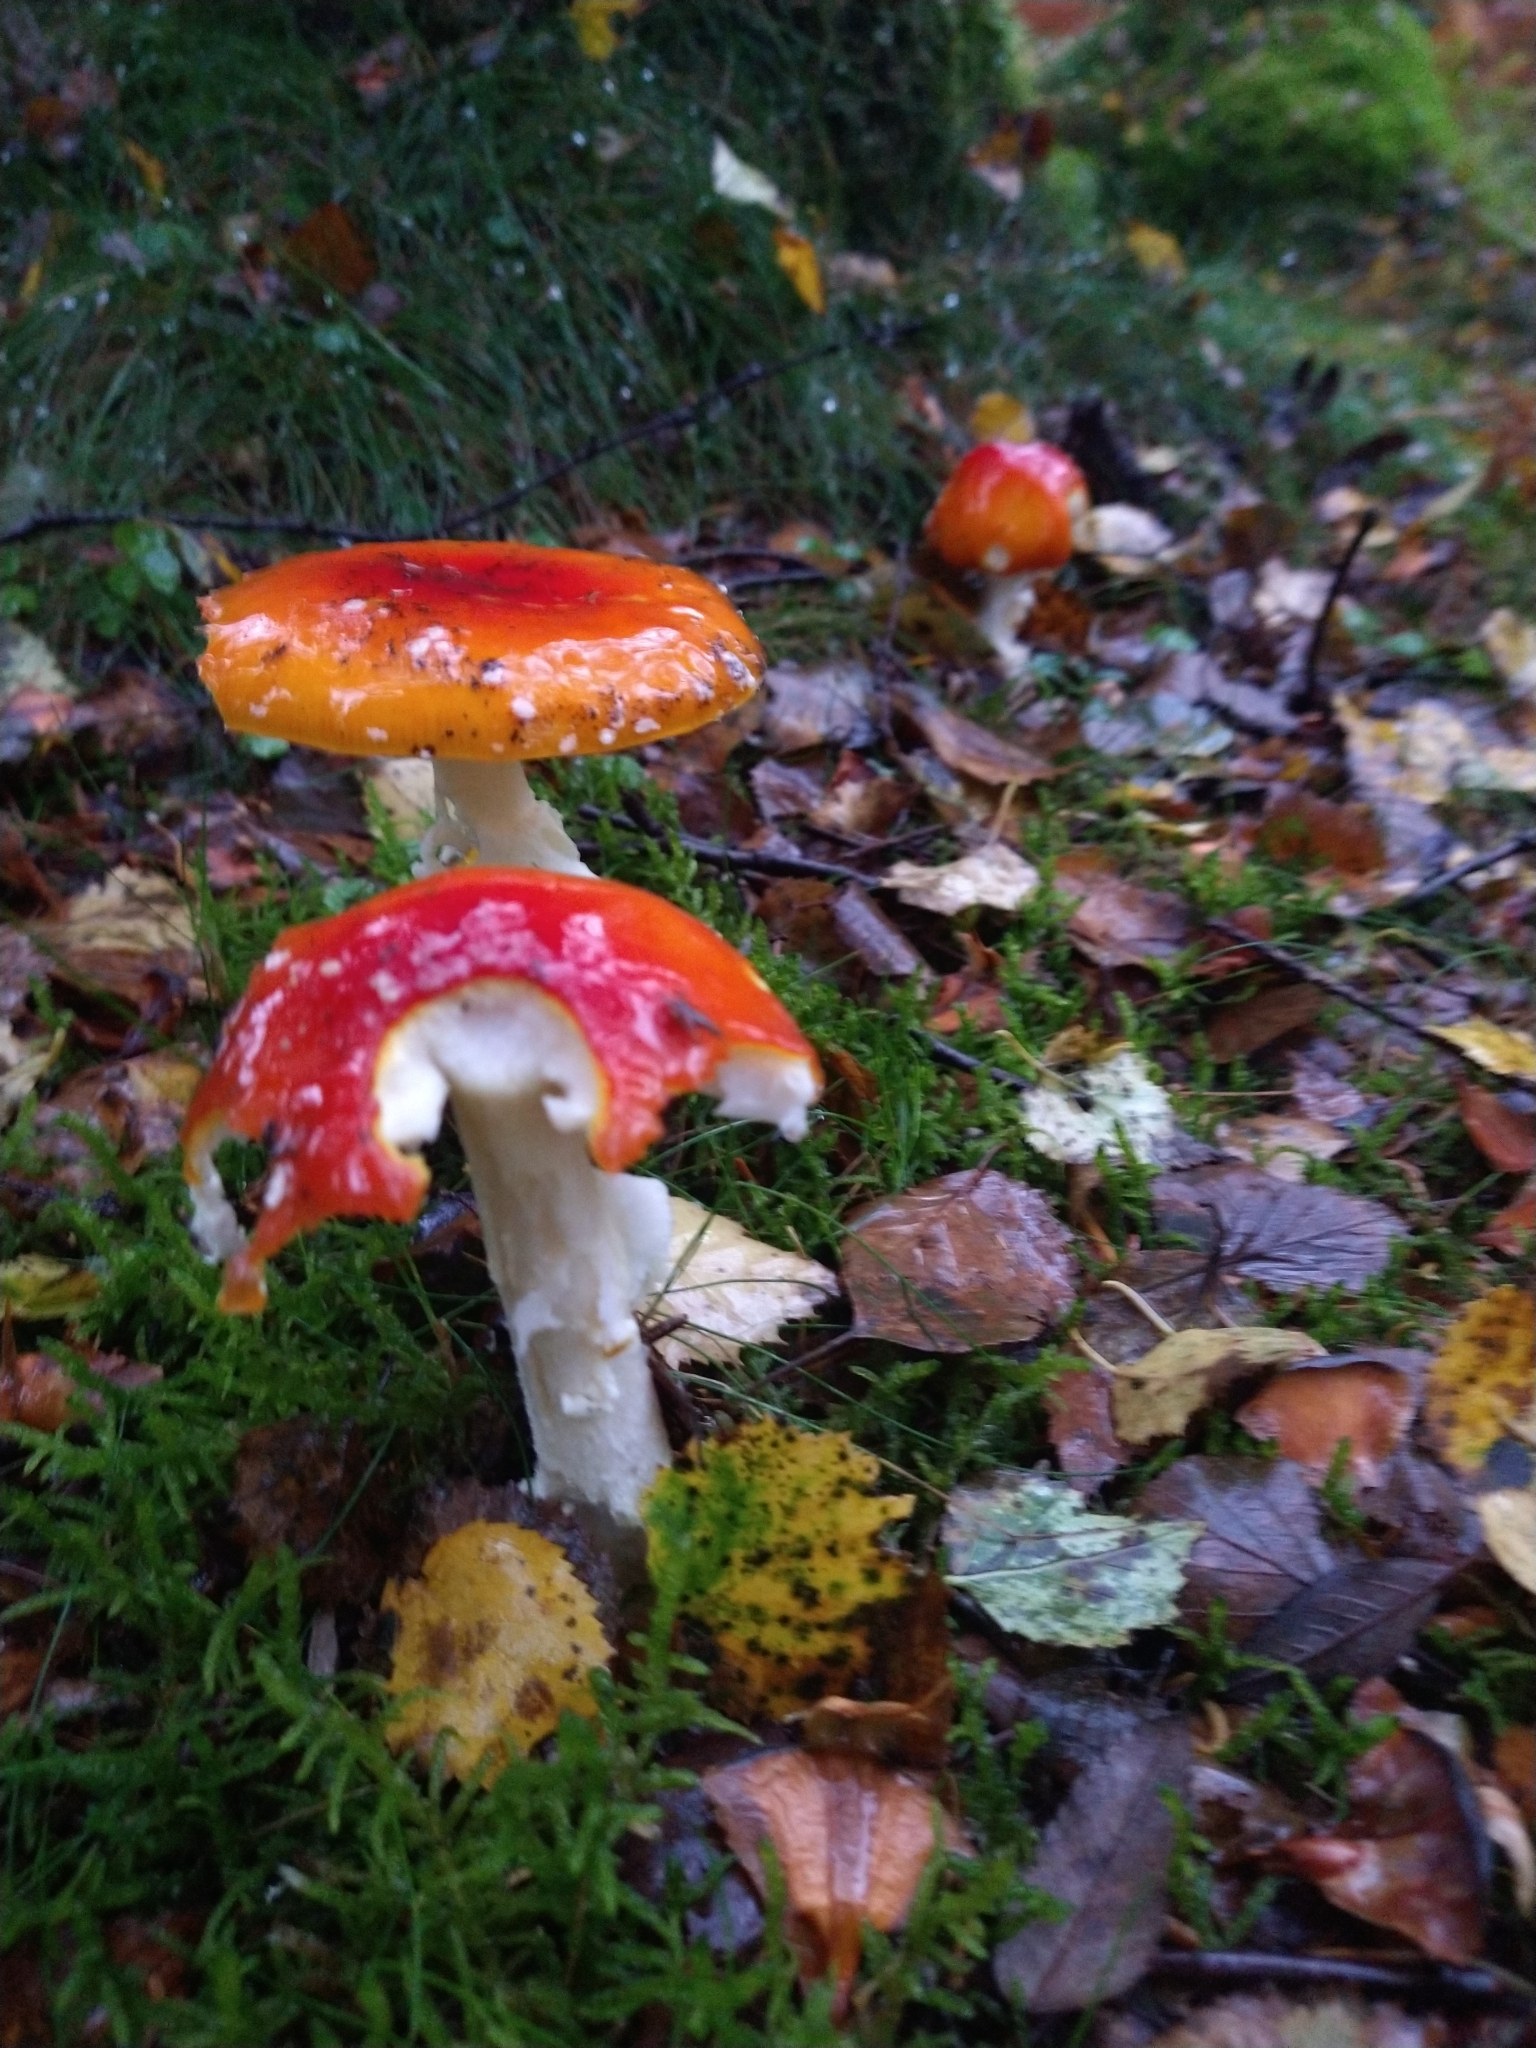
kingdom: Fungi
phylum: Basidiomycota
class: Agaricomycetes
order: Agaricales
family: Amanitaceae
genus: Amanita
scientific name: Amanita muscaria
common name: Fly agaric
